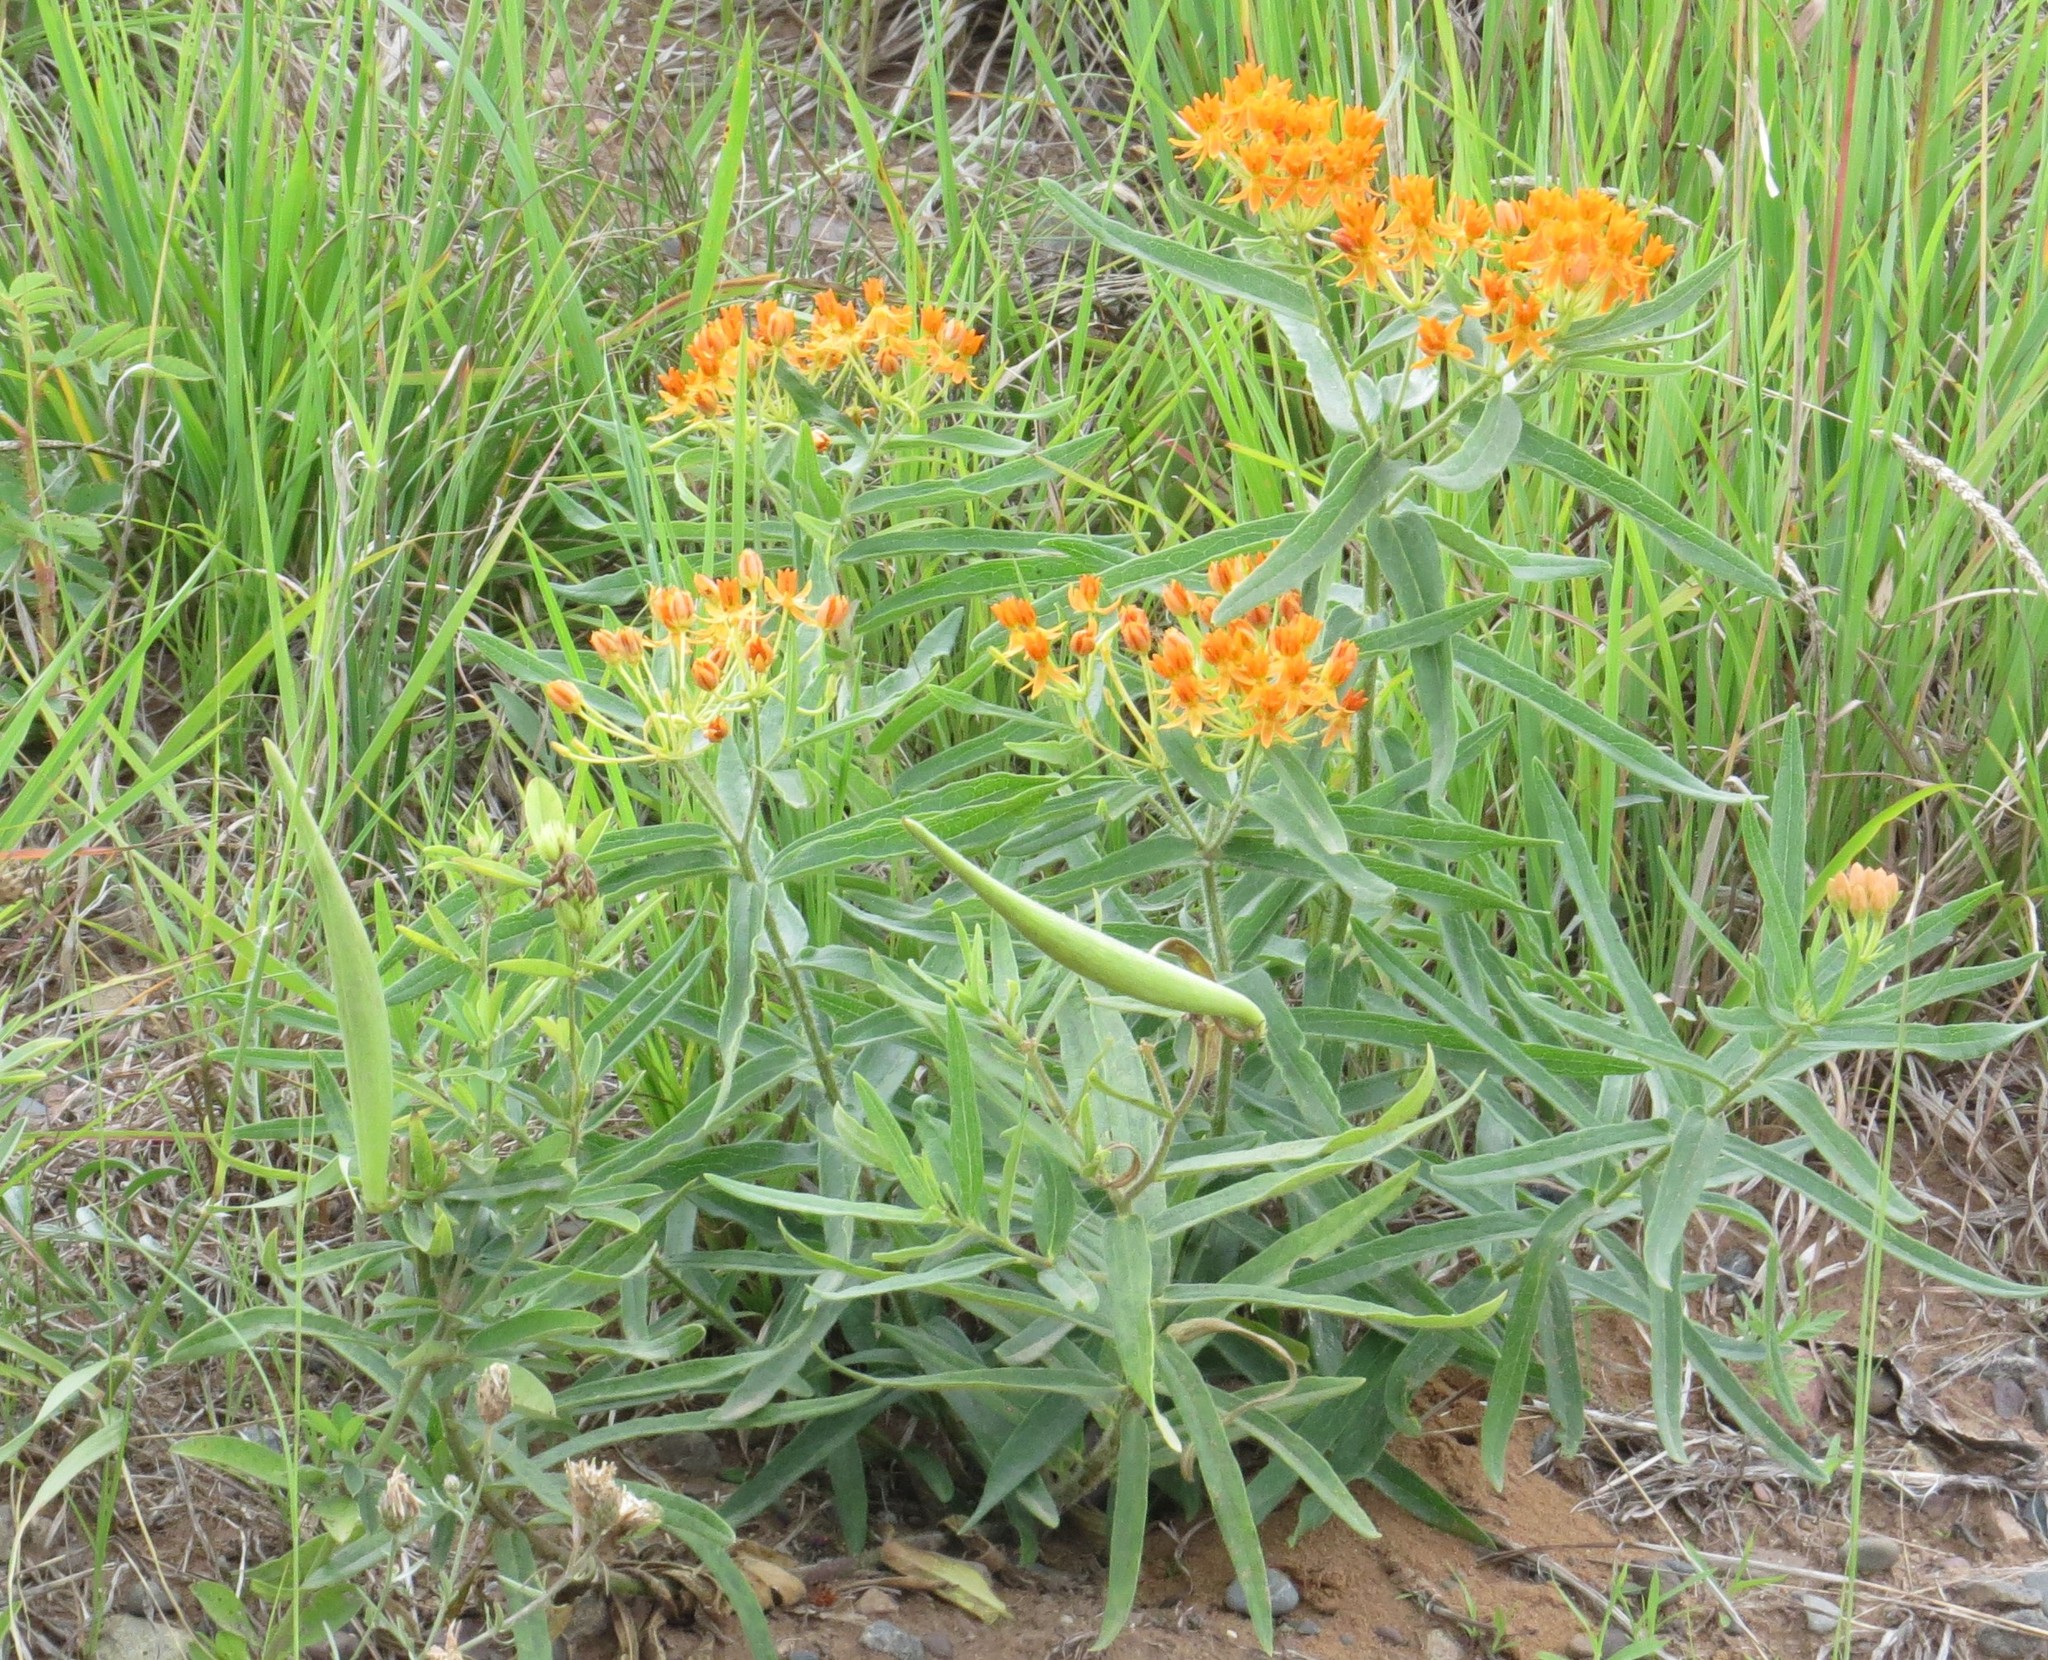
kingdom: Plantae
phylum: Tracheophyta
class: Magnoliopsida
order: Gentianales
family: Apocynaceae
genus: Asclepias
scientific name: Asclepias tuberosa
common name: Butterfly milkweed
